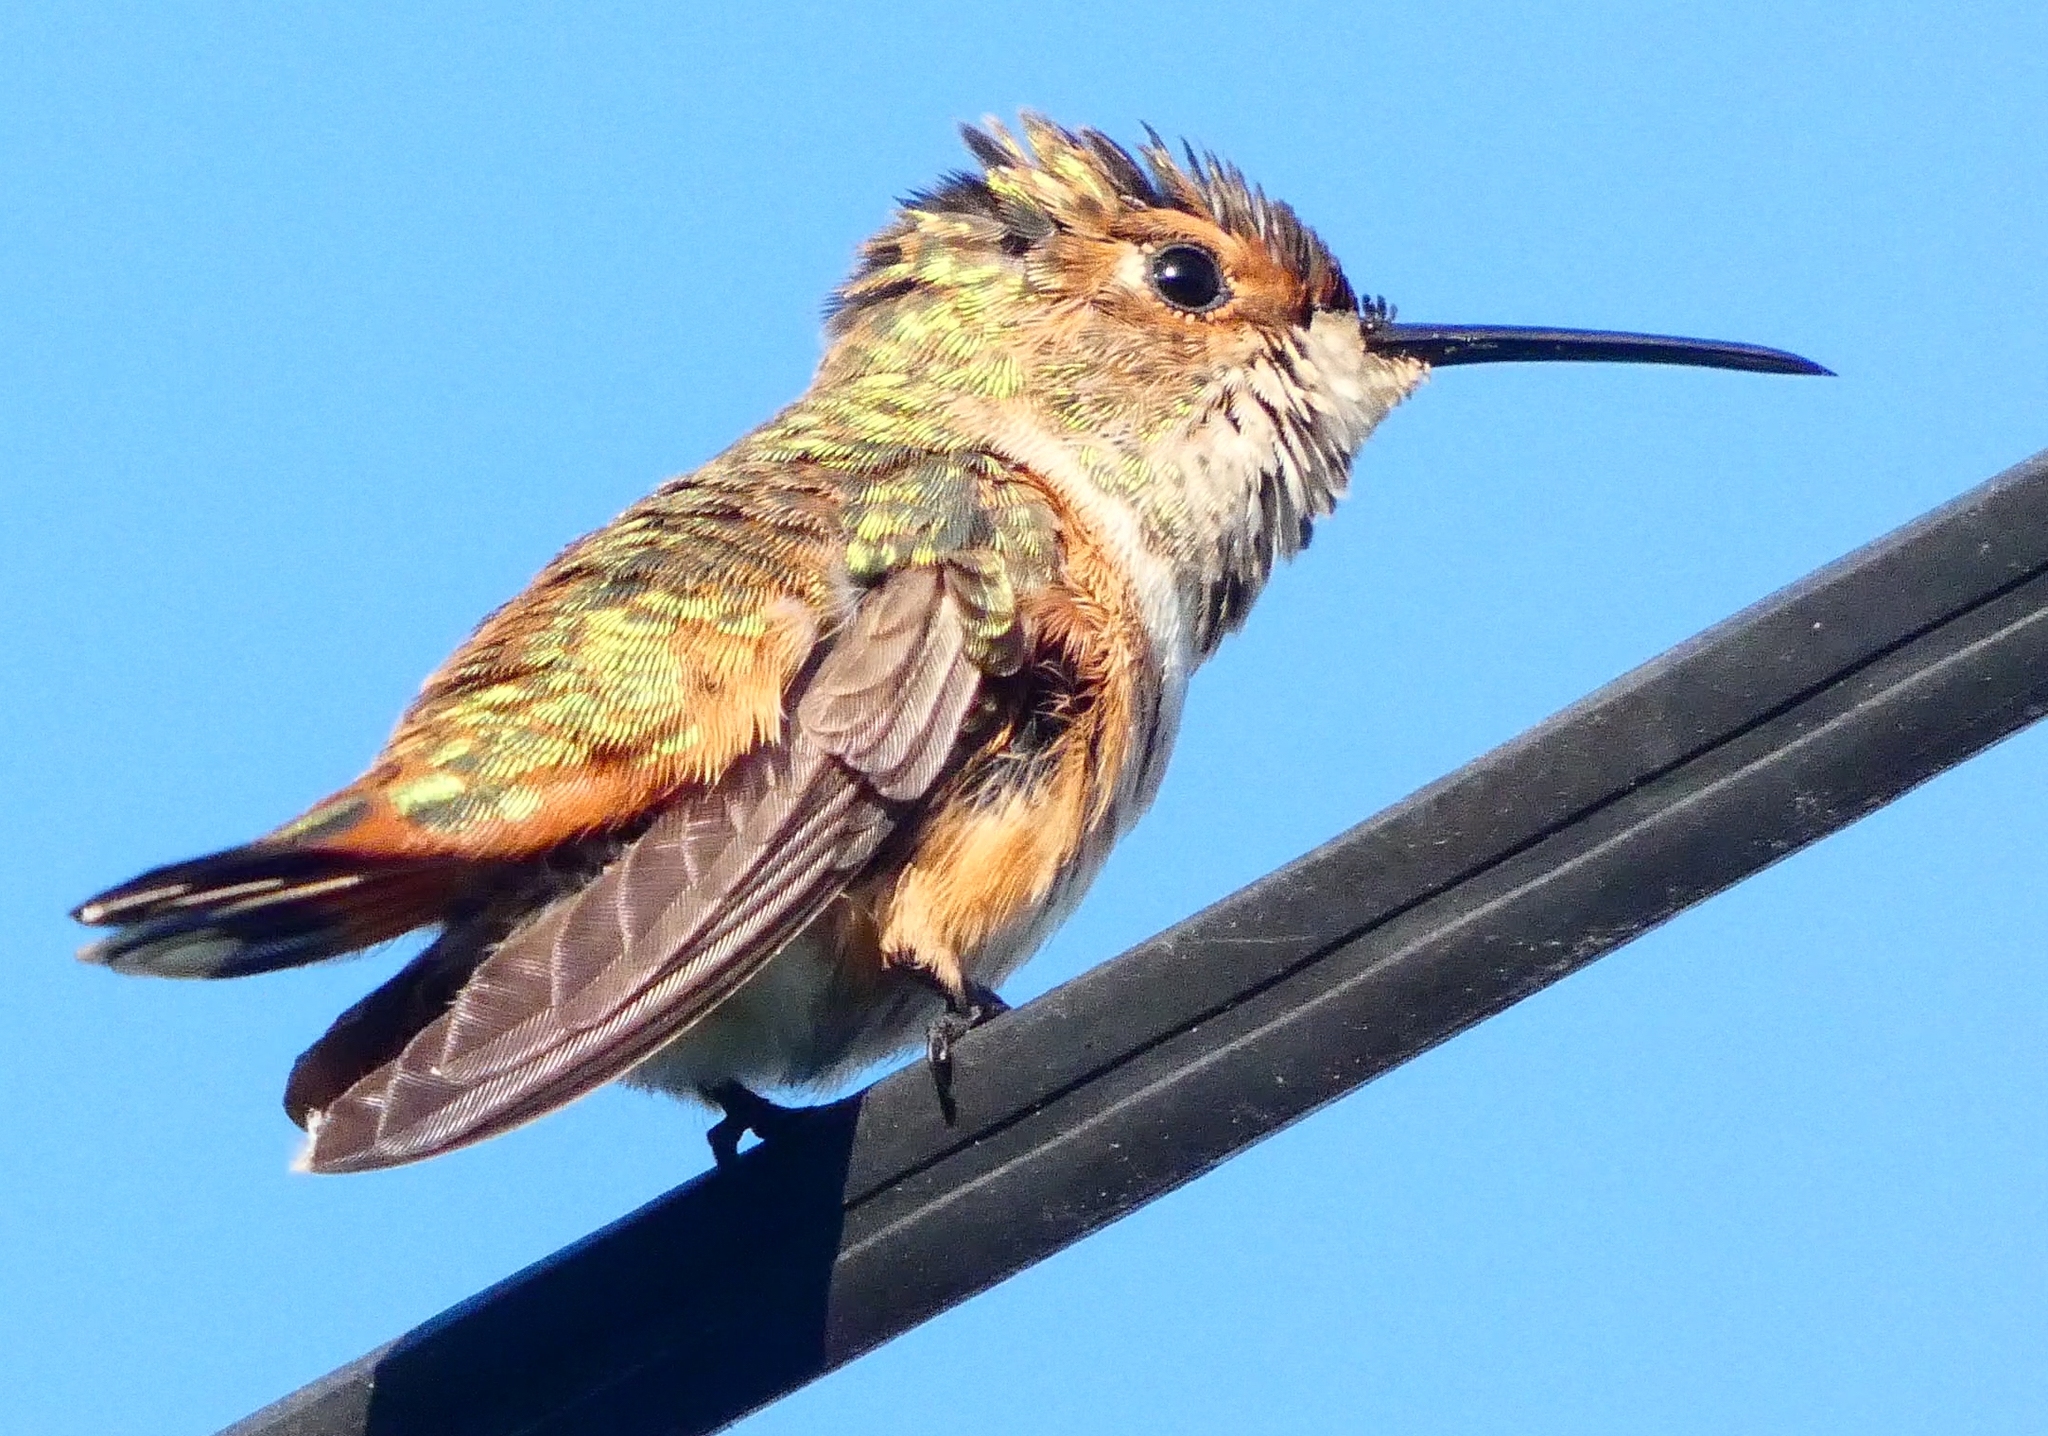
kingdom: Animalia
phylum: Chordata
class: Aves
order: Apodiformes
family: Trochilidae
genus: Selasphorus
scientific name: Selasphorus sasin
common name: Allen's hummingbird
